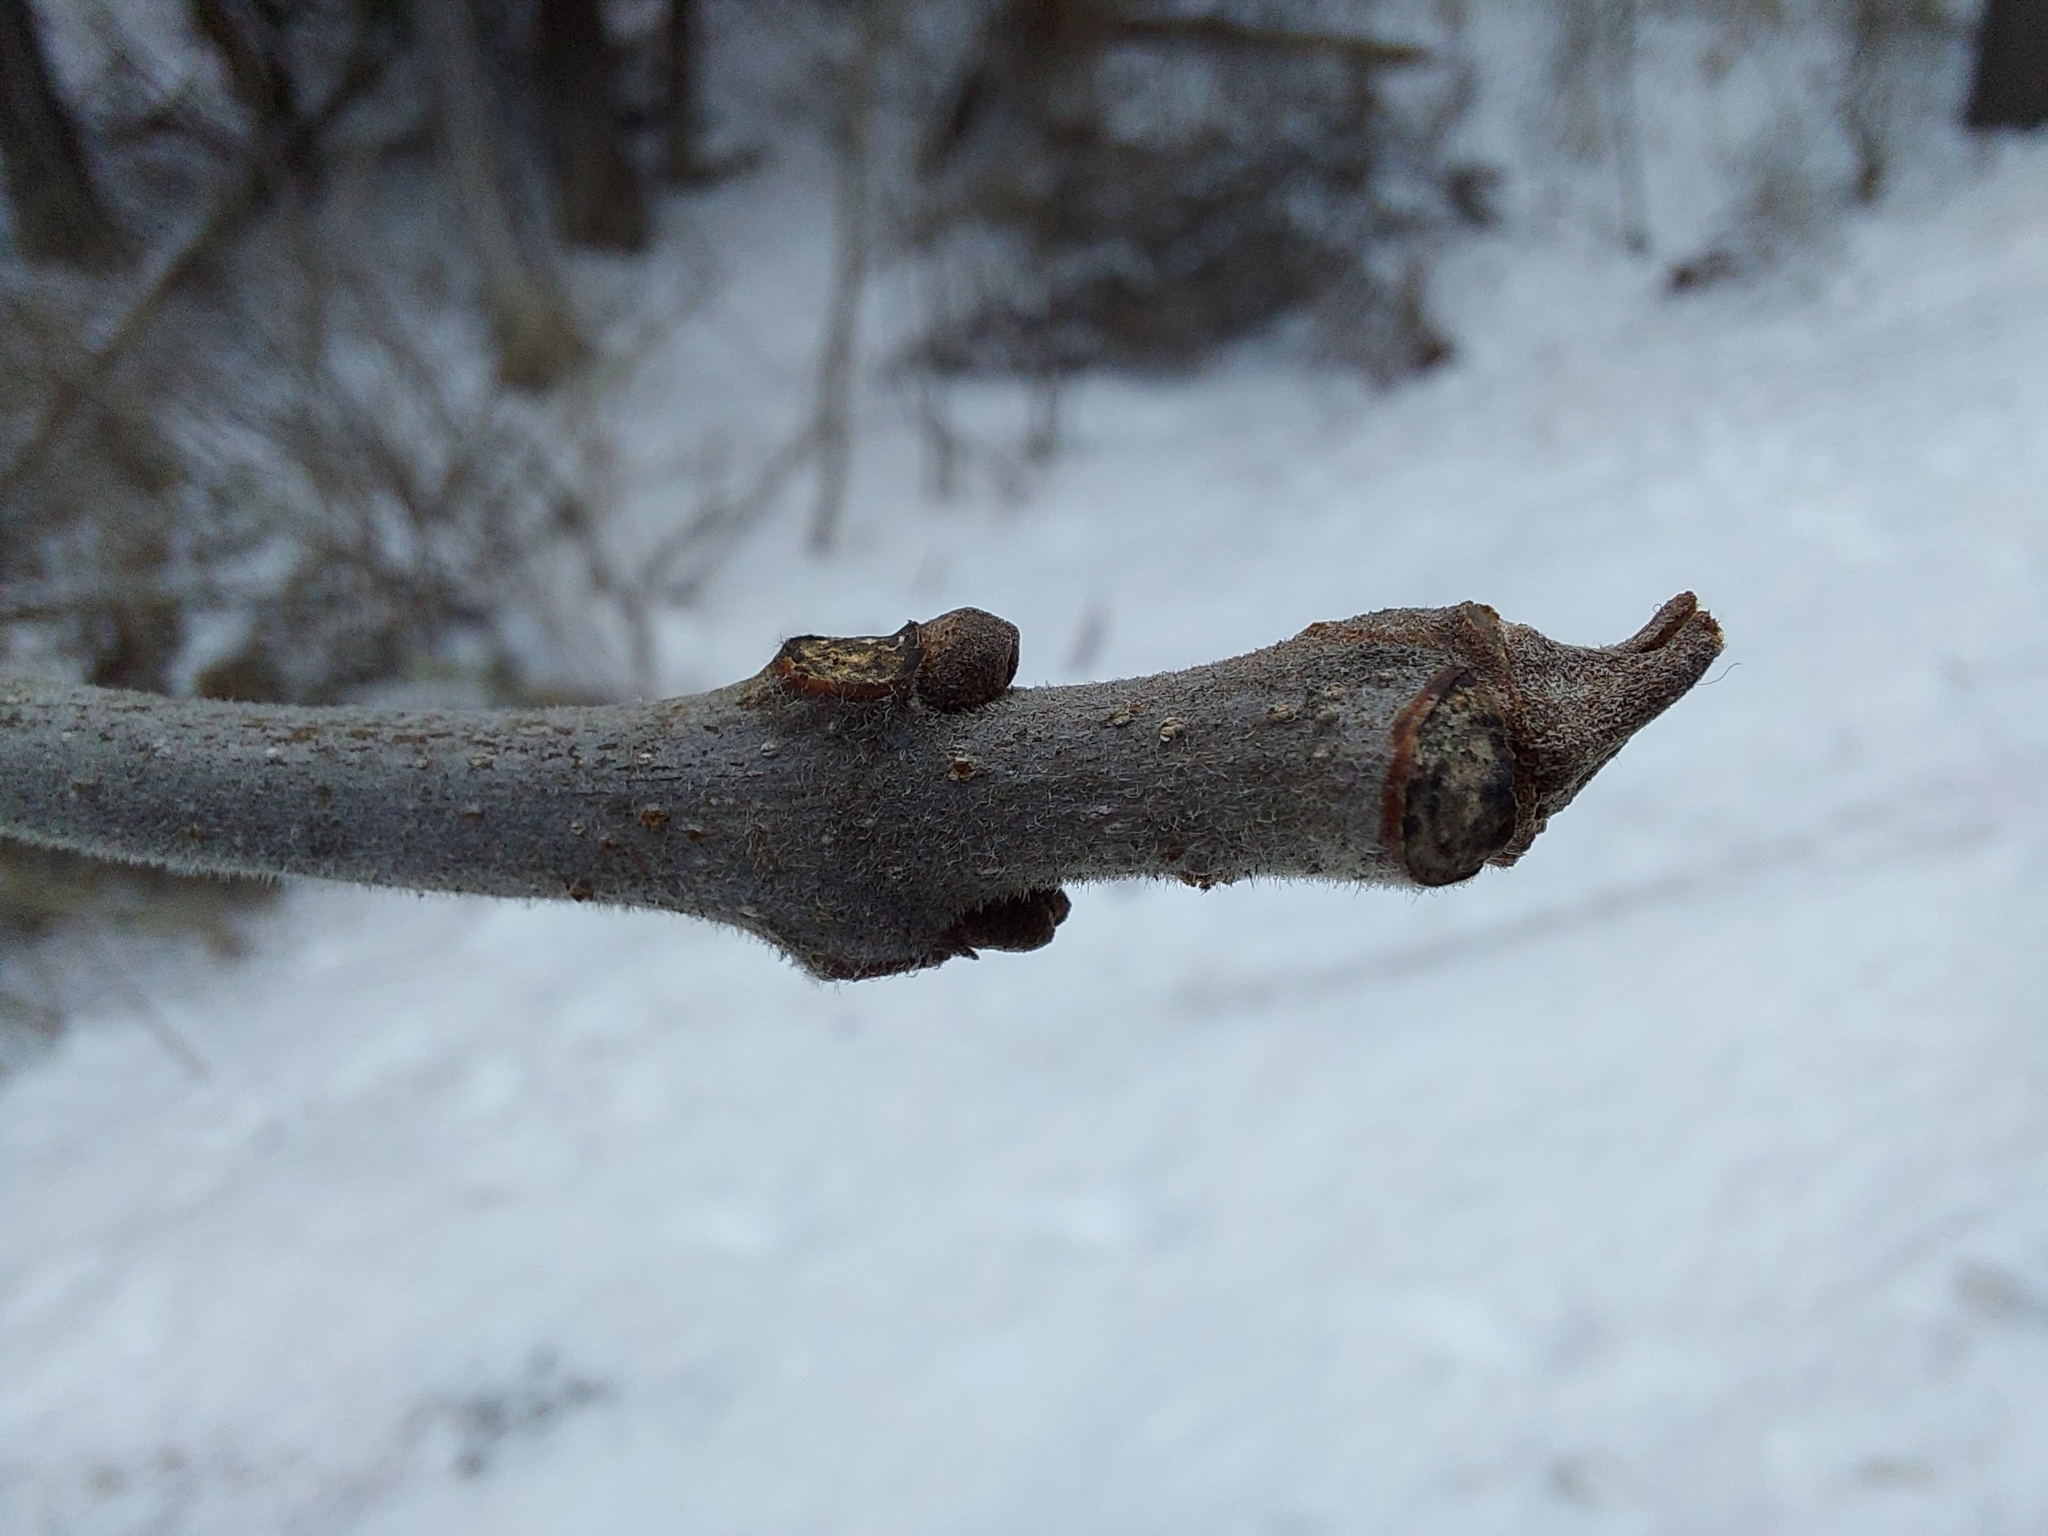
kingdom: Plantae
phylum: Tracheophyta
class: Magnoliopsida
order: Lamiales
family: Oleaceae
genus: Fraxinus
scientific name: Fraxinus pennsylvanica
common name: Green ash
